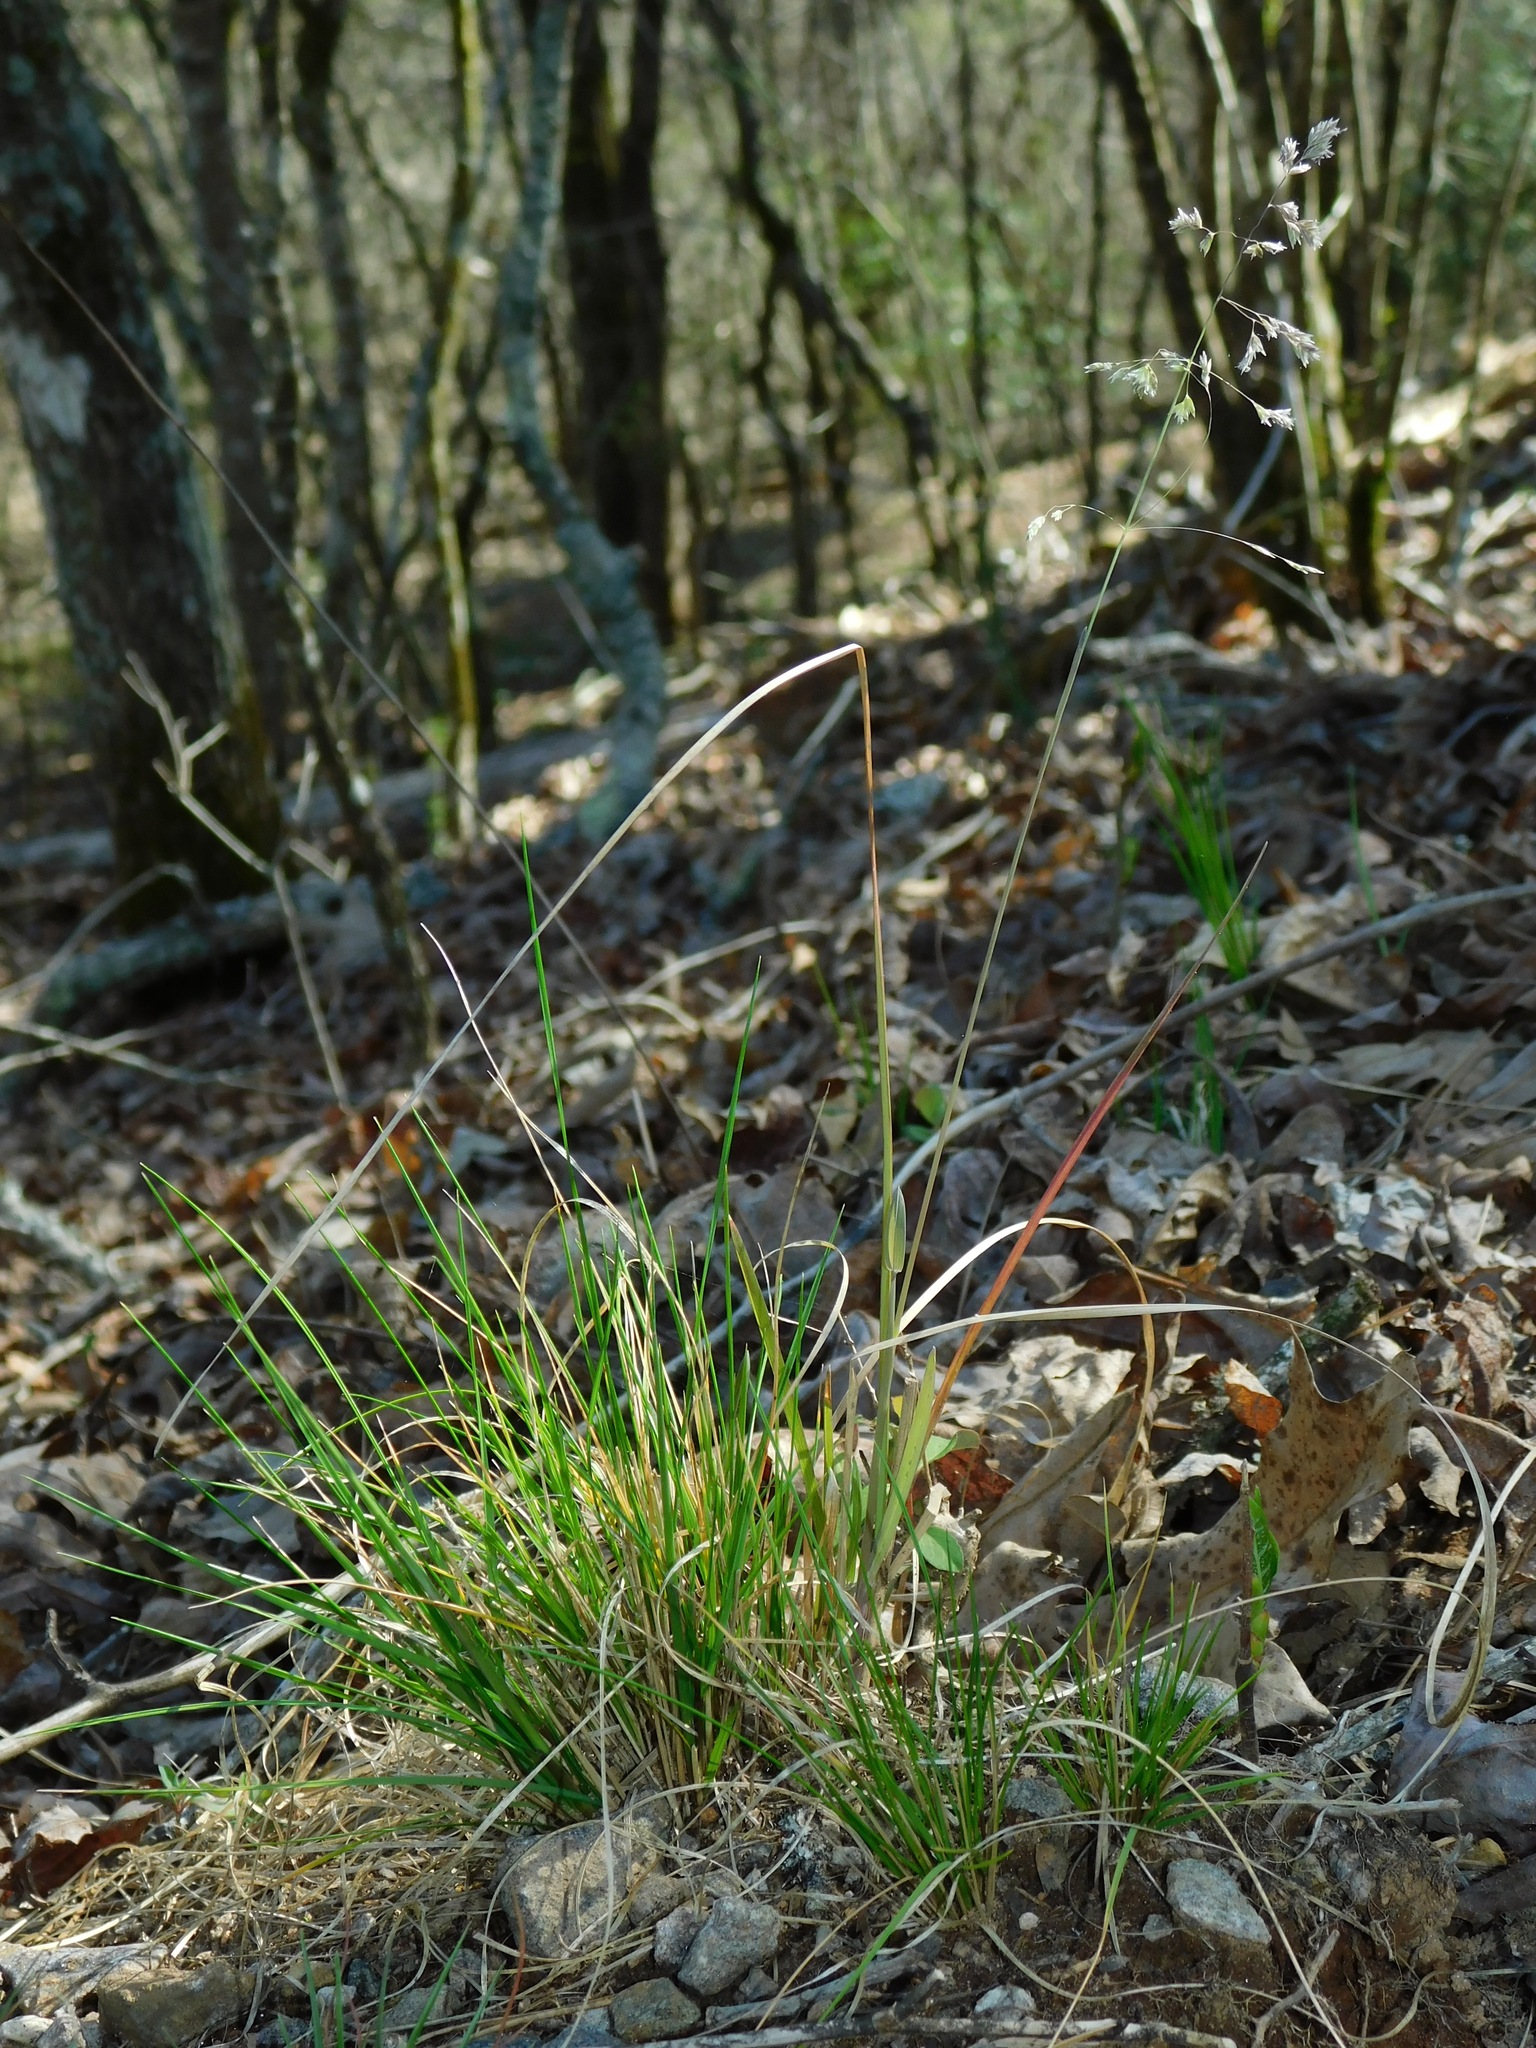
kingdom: Plantae
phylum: Tracheophyta
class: Liliopsida
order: Poales
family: Poaceae
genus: Poa
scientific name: Poa cuspidata
